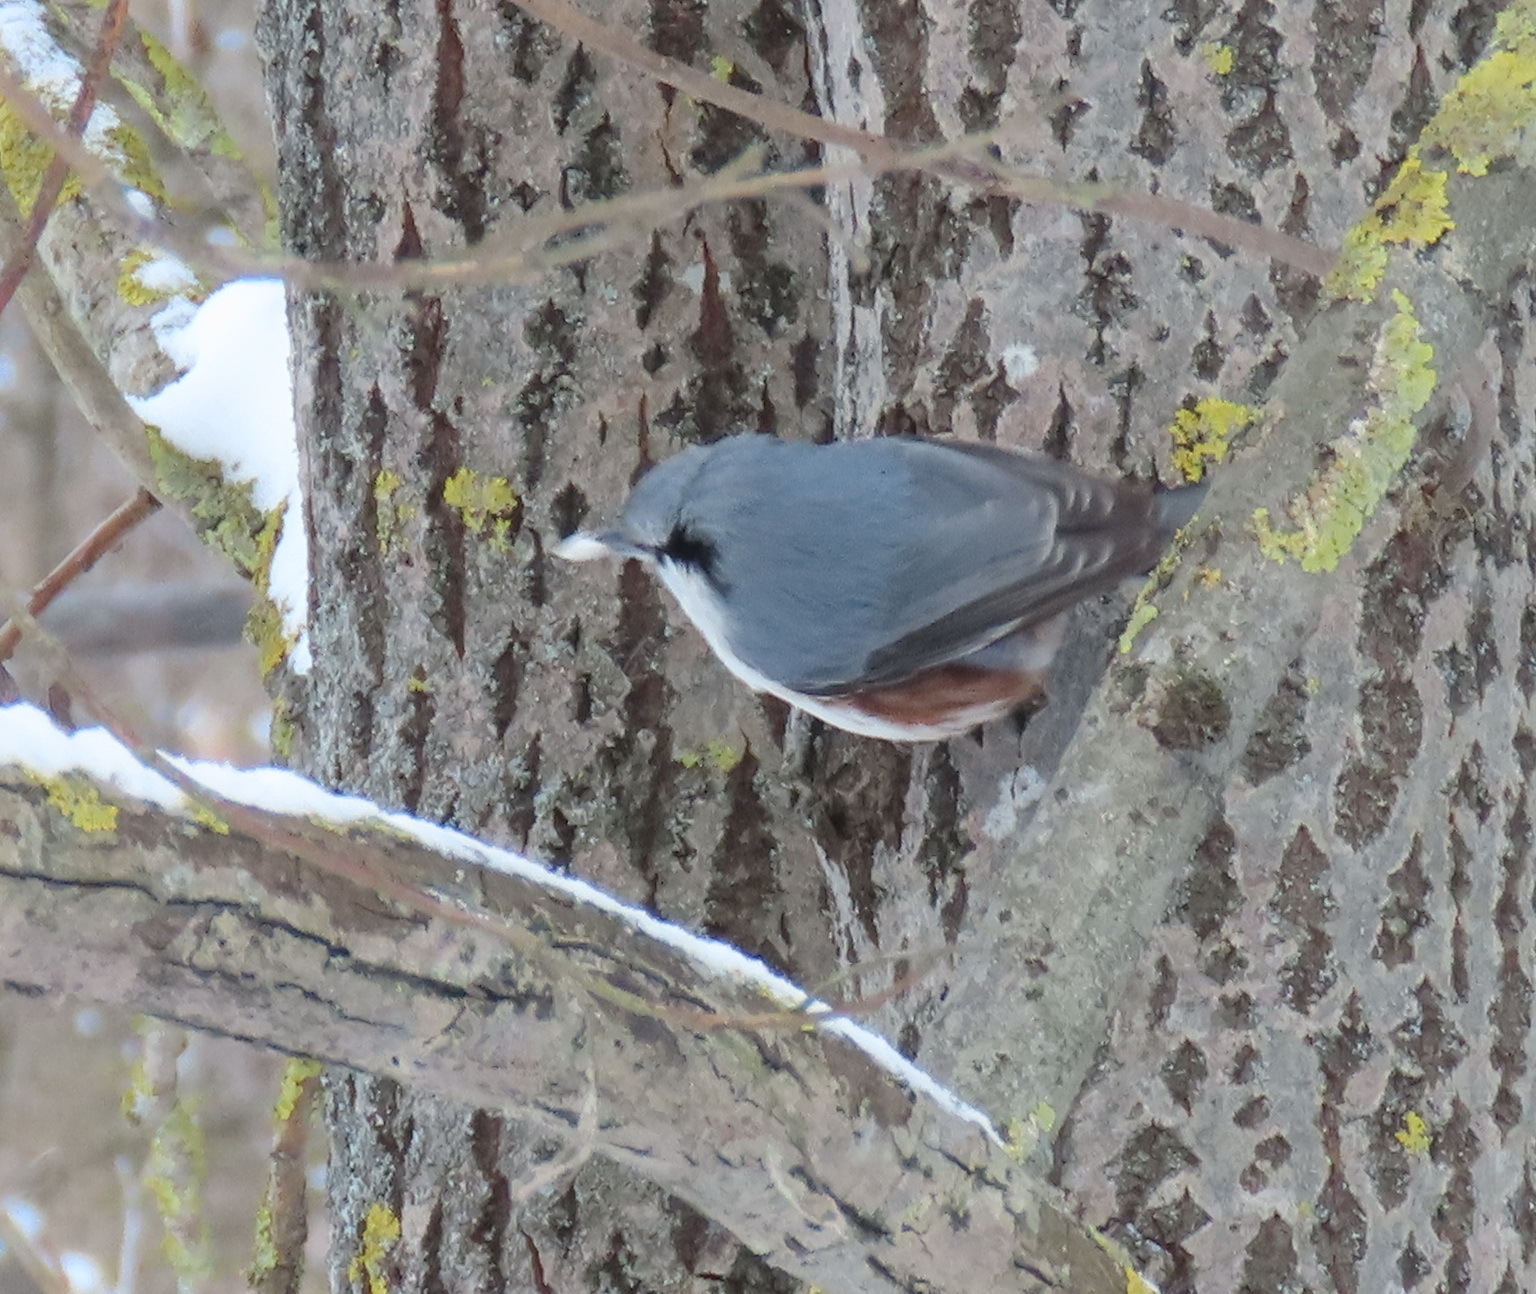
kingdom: Animalia
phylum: Chordata
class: Aves
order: Passeriformes
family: Sittidae
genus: Sitta
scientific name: Sitta europaea
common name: Eurasian nuthatch
